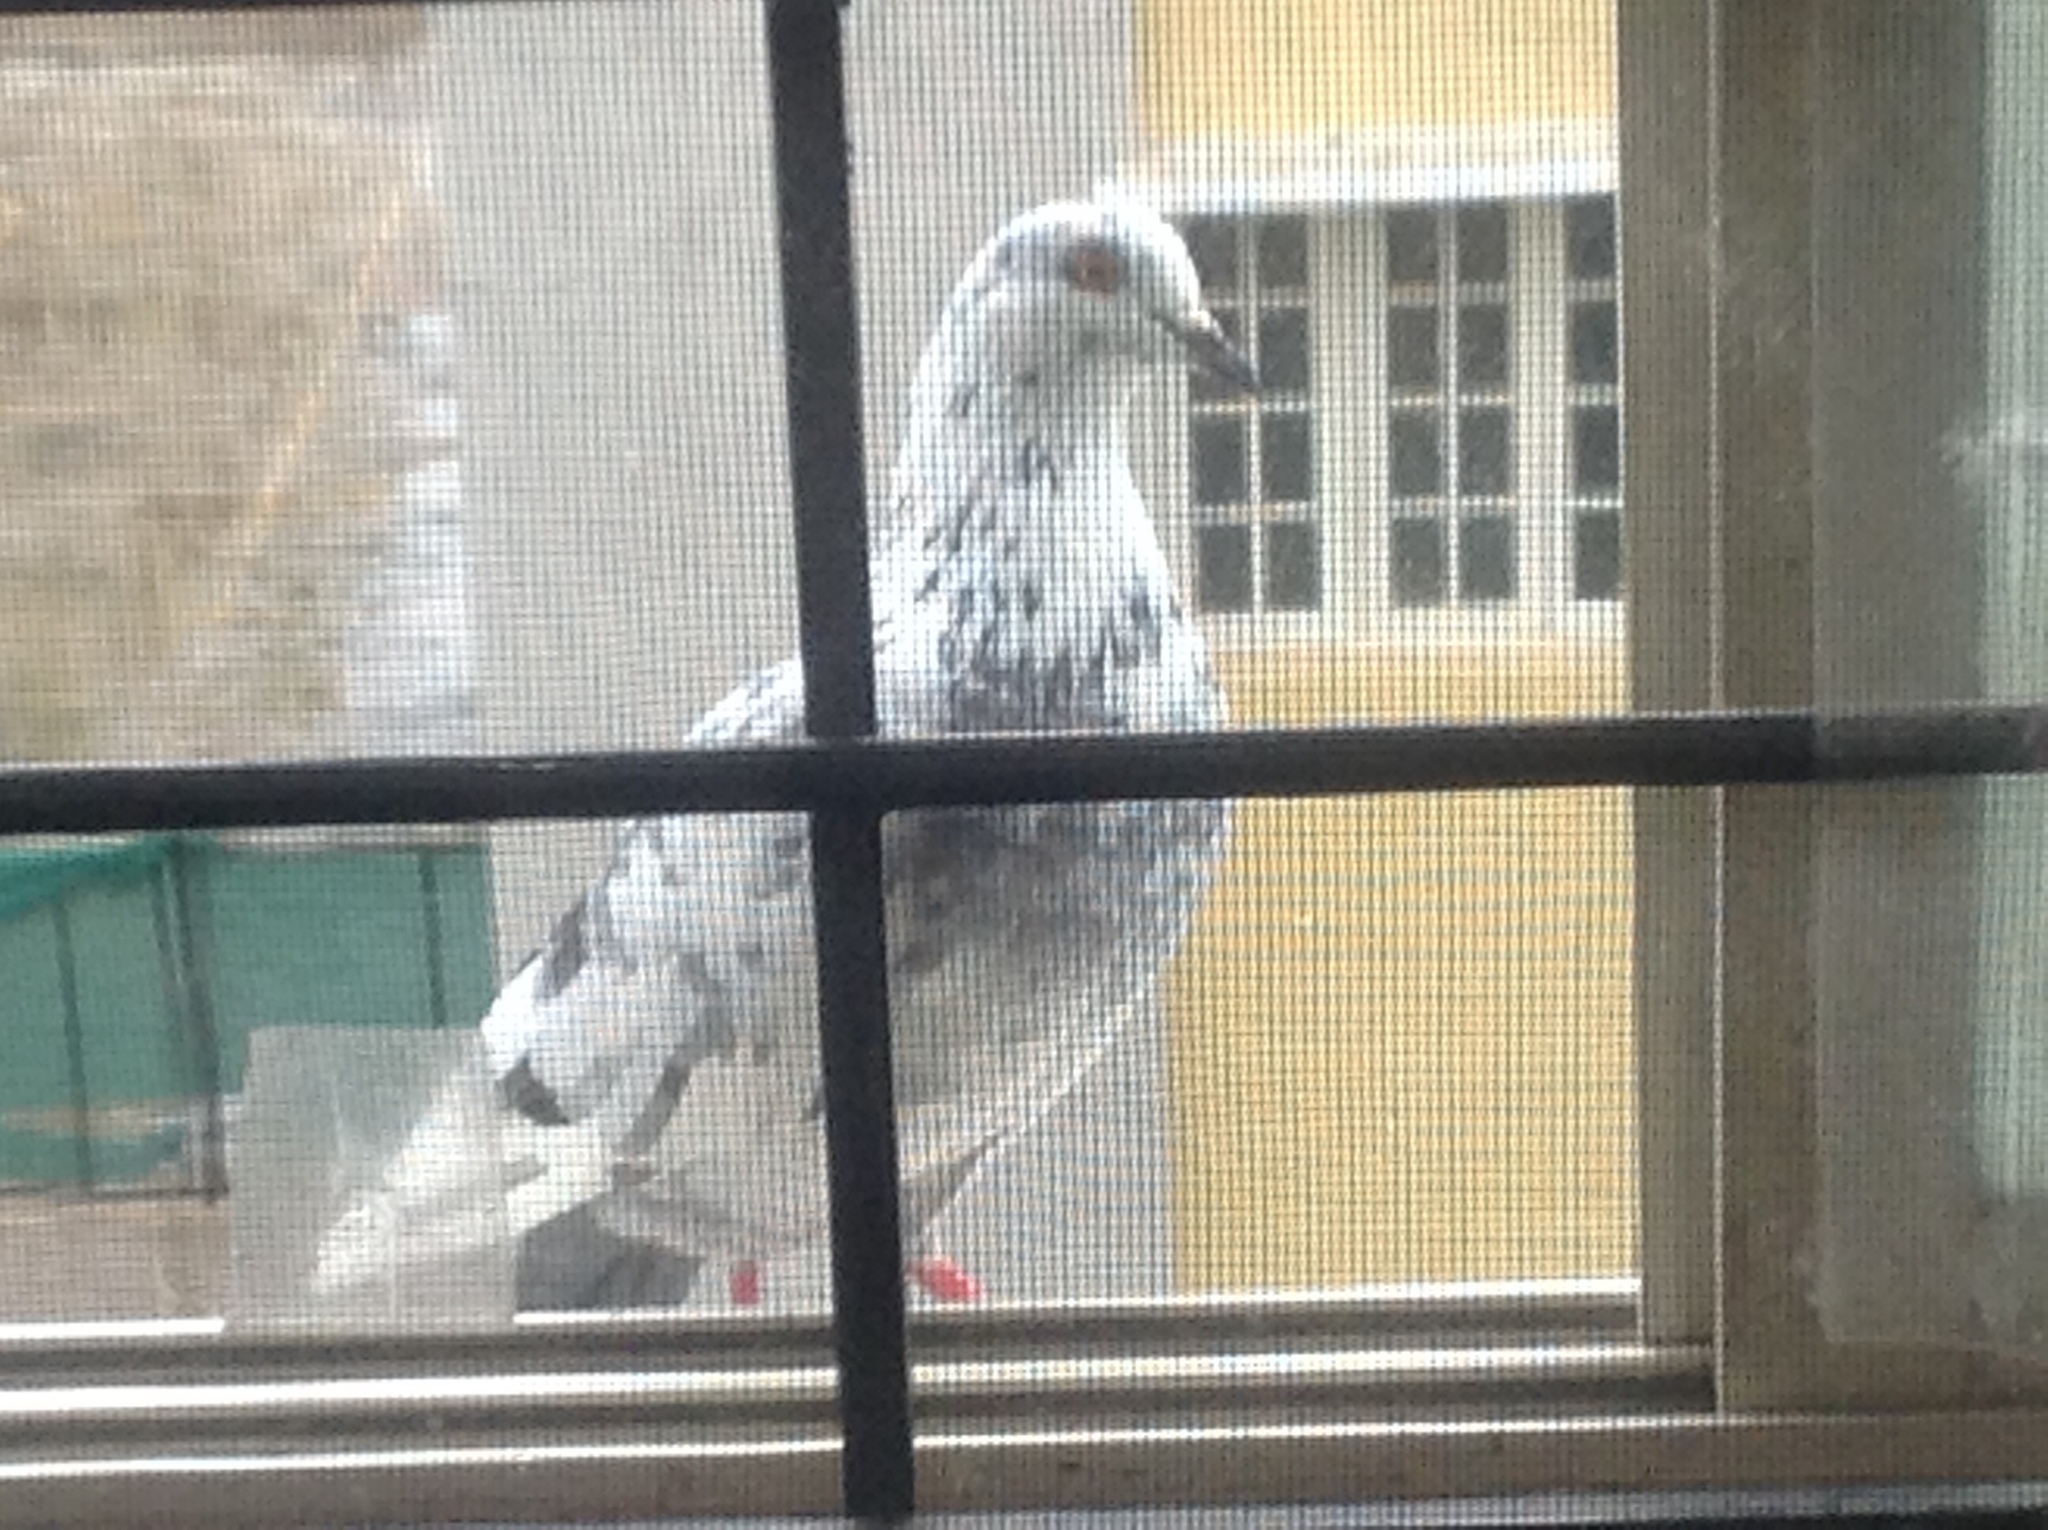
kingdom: Animalia
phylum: Chordata
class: Aves
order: Columbiformes
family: Columbidae
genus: Columba
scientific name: Columba livia
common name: Rock pigeon
